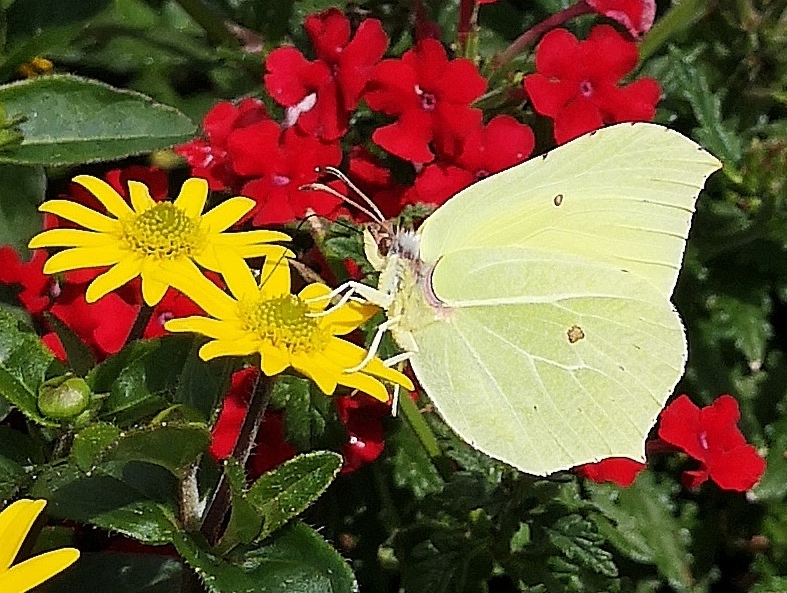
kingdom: Animalia
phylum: Arthropoda
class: Insecta
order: Lepidoptera
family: Pieridae
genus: Gonepteryx
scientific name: Gonepteryx rhamni
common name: Brimstone
